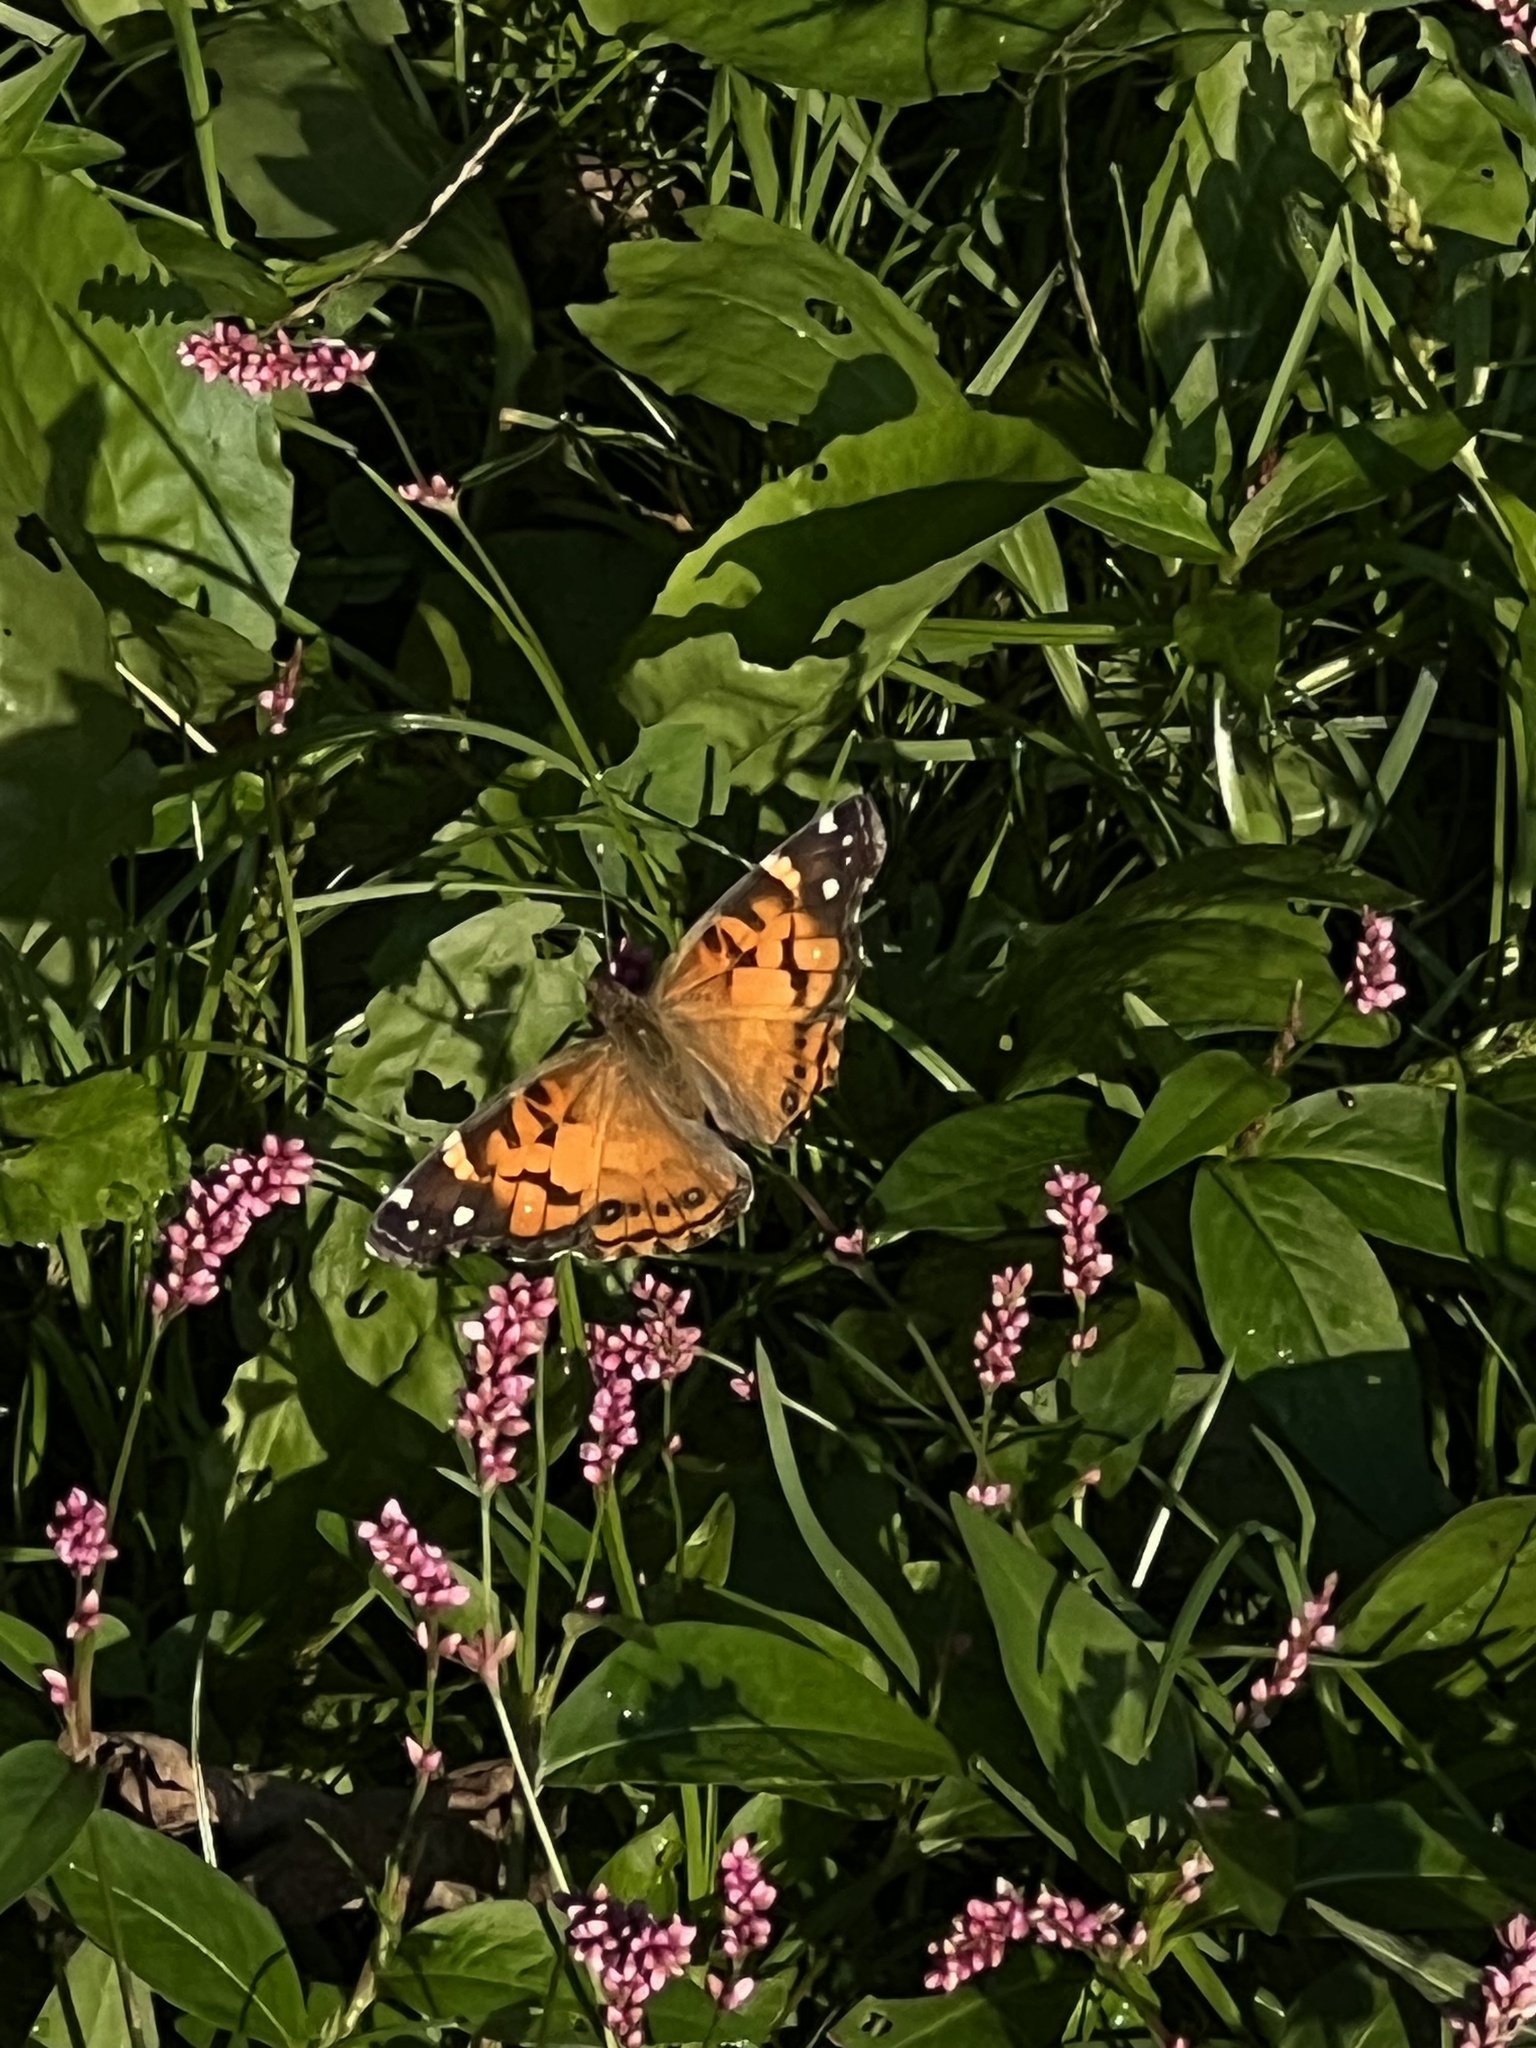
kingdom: Animalia
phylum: Arthropoda
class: Insecta
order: Lepidoptera
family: Nymphalidae
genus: Vanessa
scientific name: Vanessa virginiensis
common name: American lady
